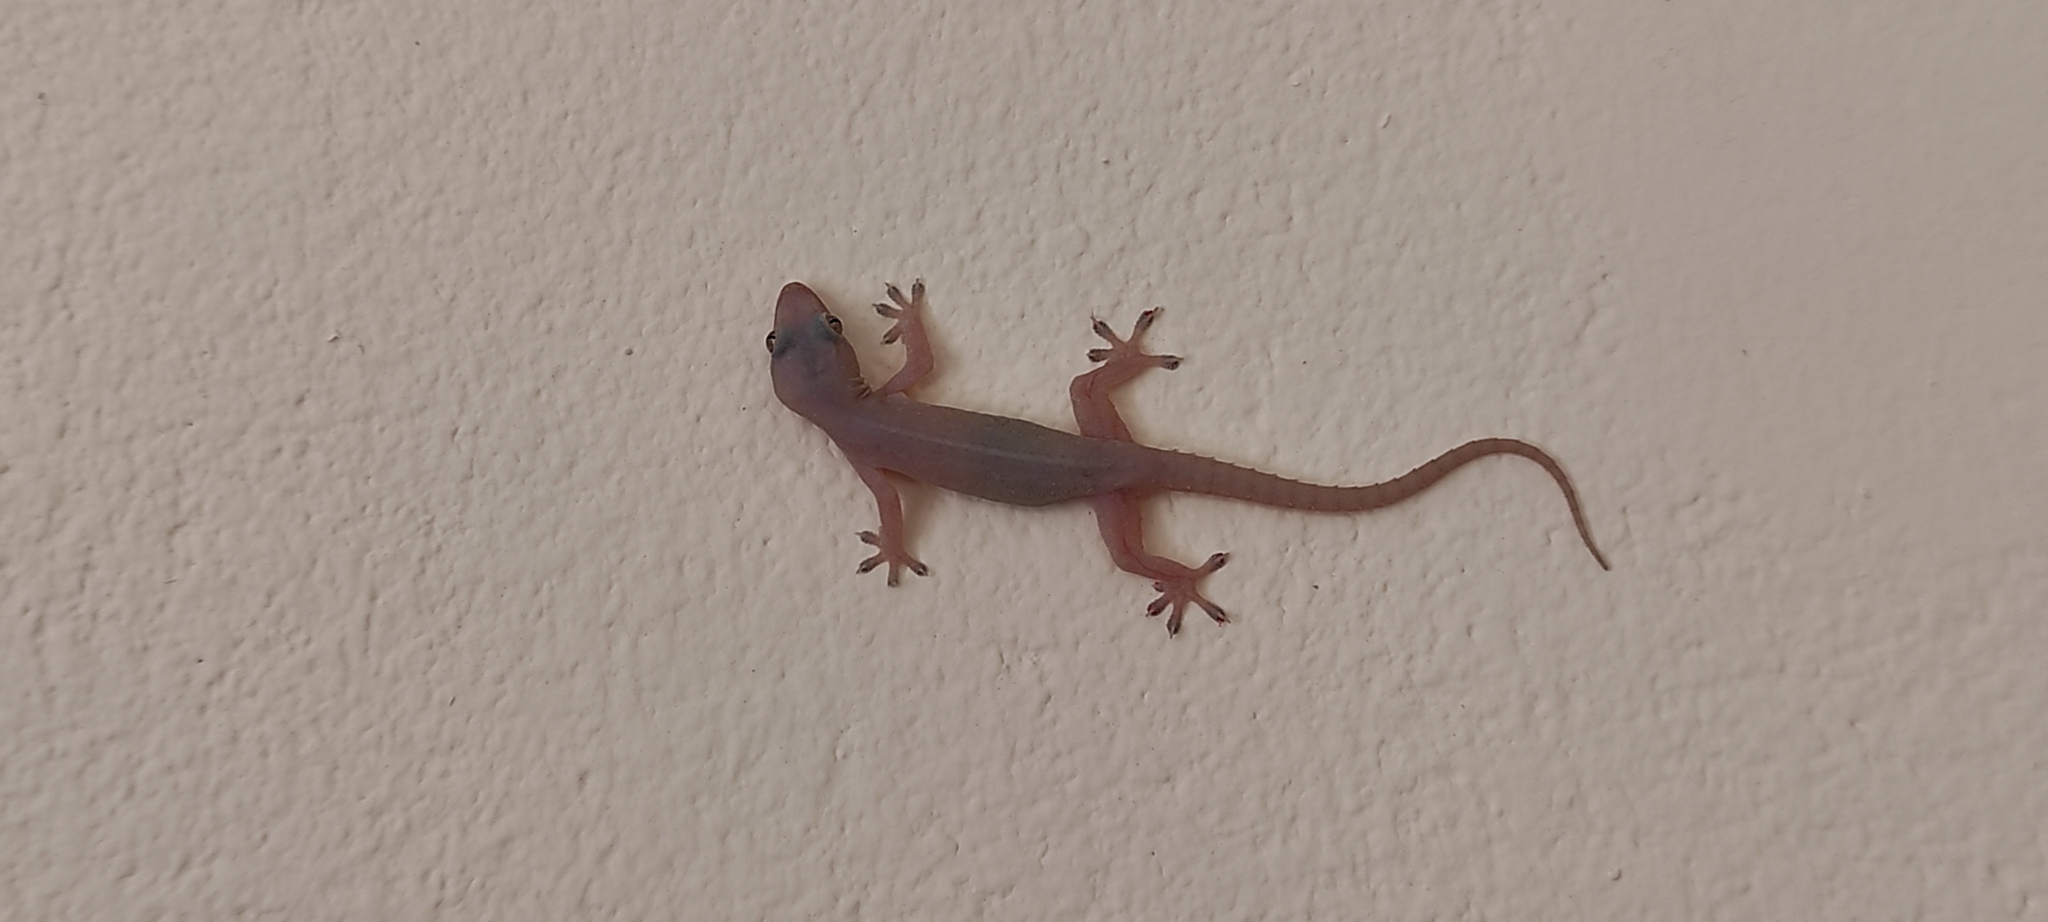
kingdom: Animalia
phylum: Chordata
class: Squamata
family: Gekkonidae
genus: Hemidactylus
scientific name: Hemidactylus mabouia
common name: House gecko
